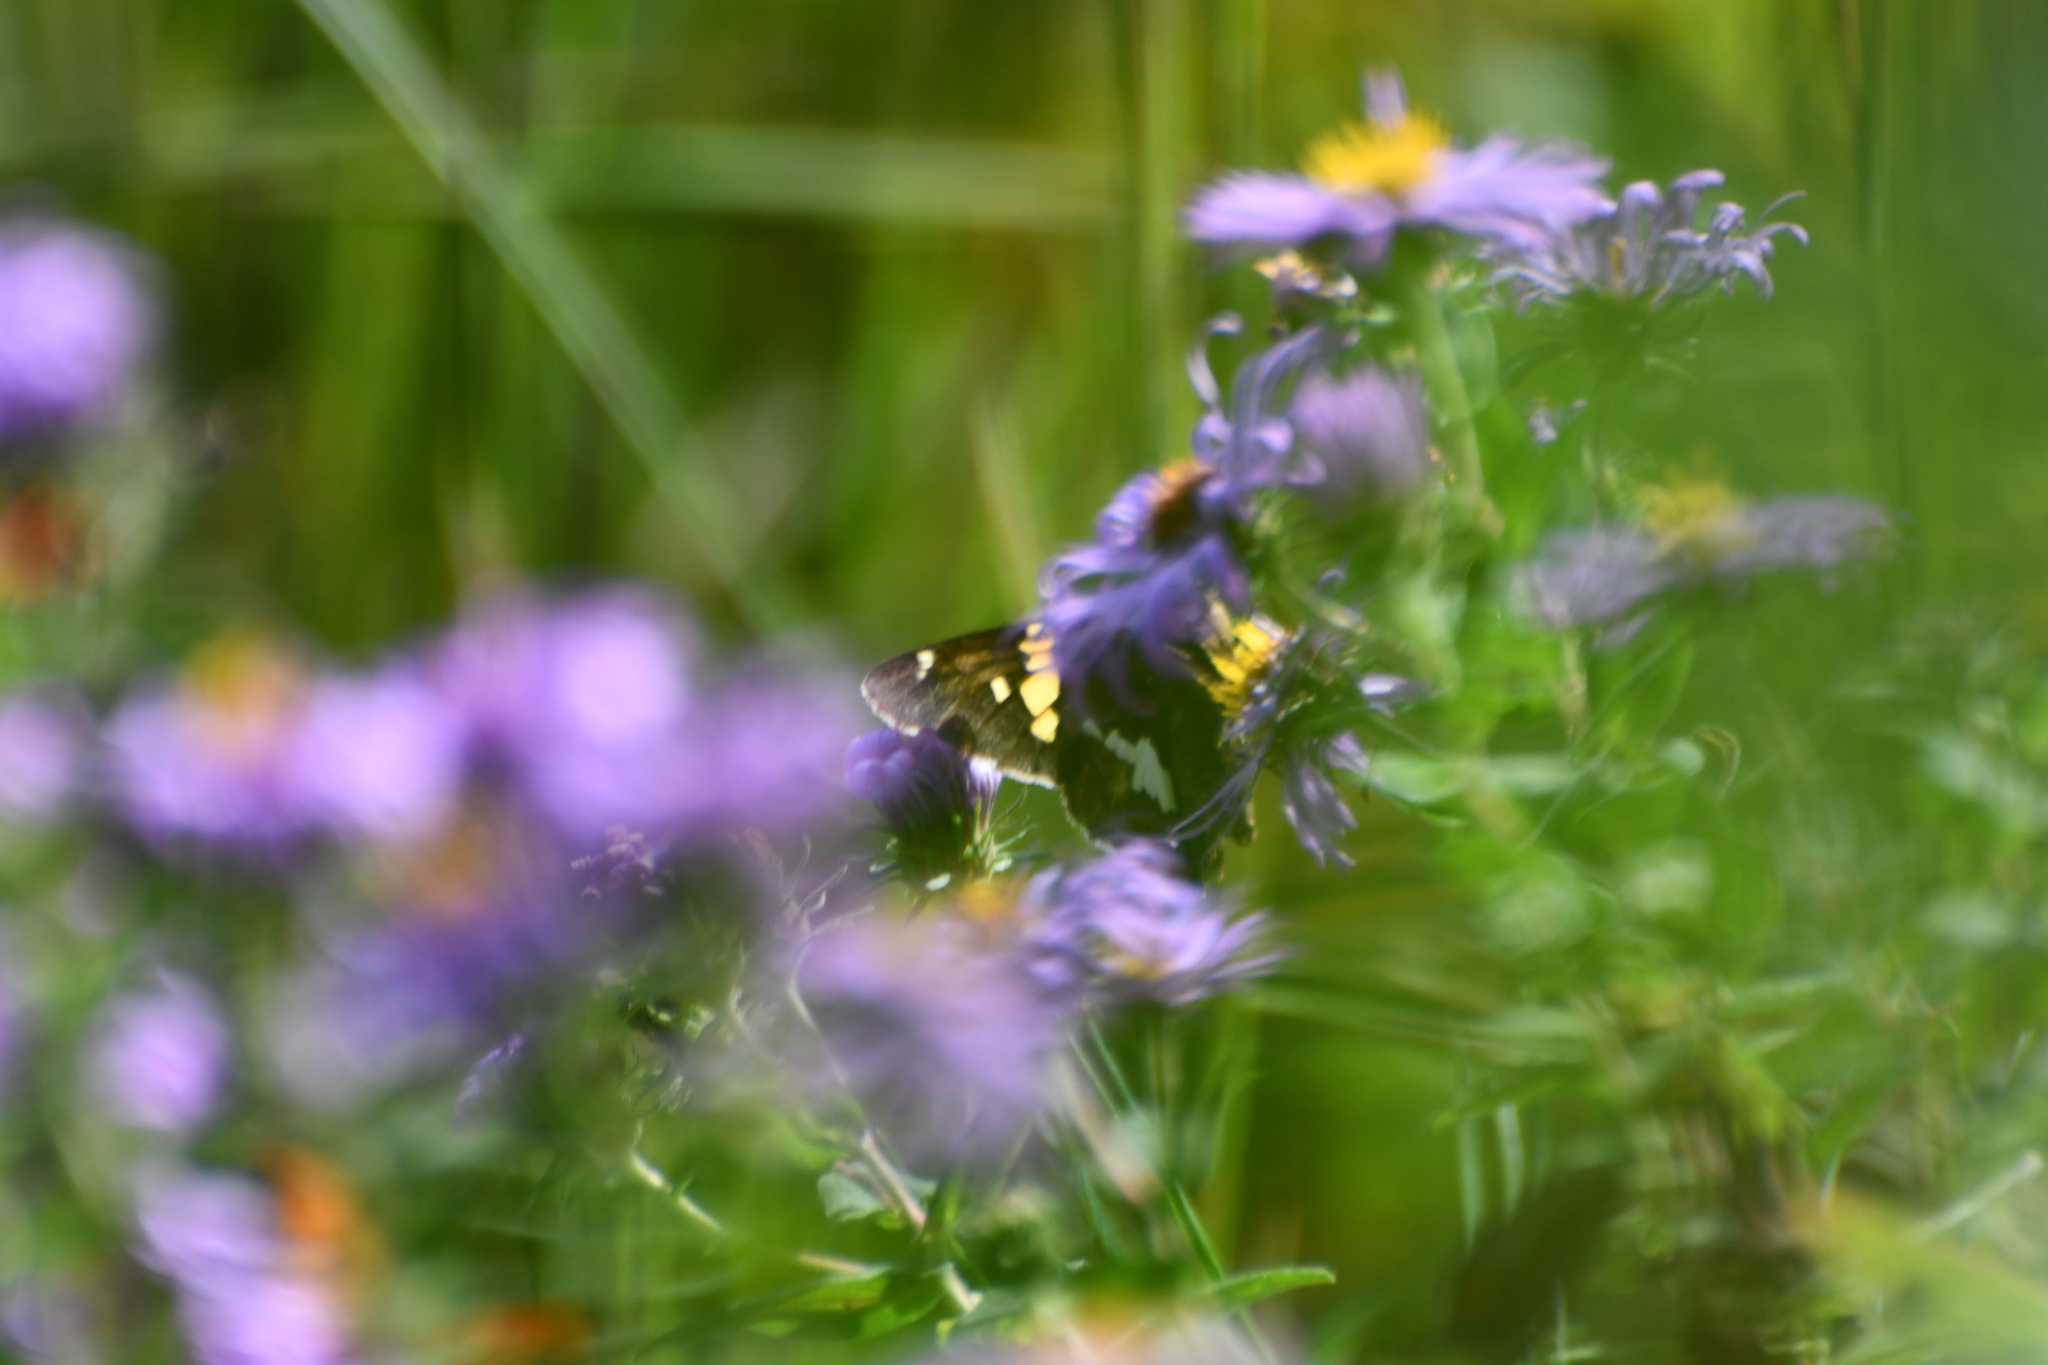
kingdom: Animalia
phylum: Arthropoda
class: Insecta
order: Lepidoptera
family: Hesperiidae
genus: Epargyreus
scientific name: Epargyreus clarus
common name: Silver-spotted skipper
